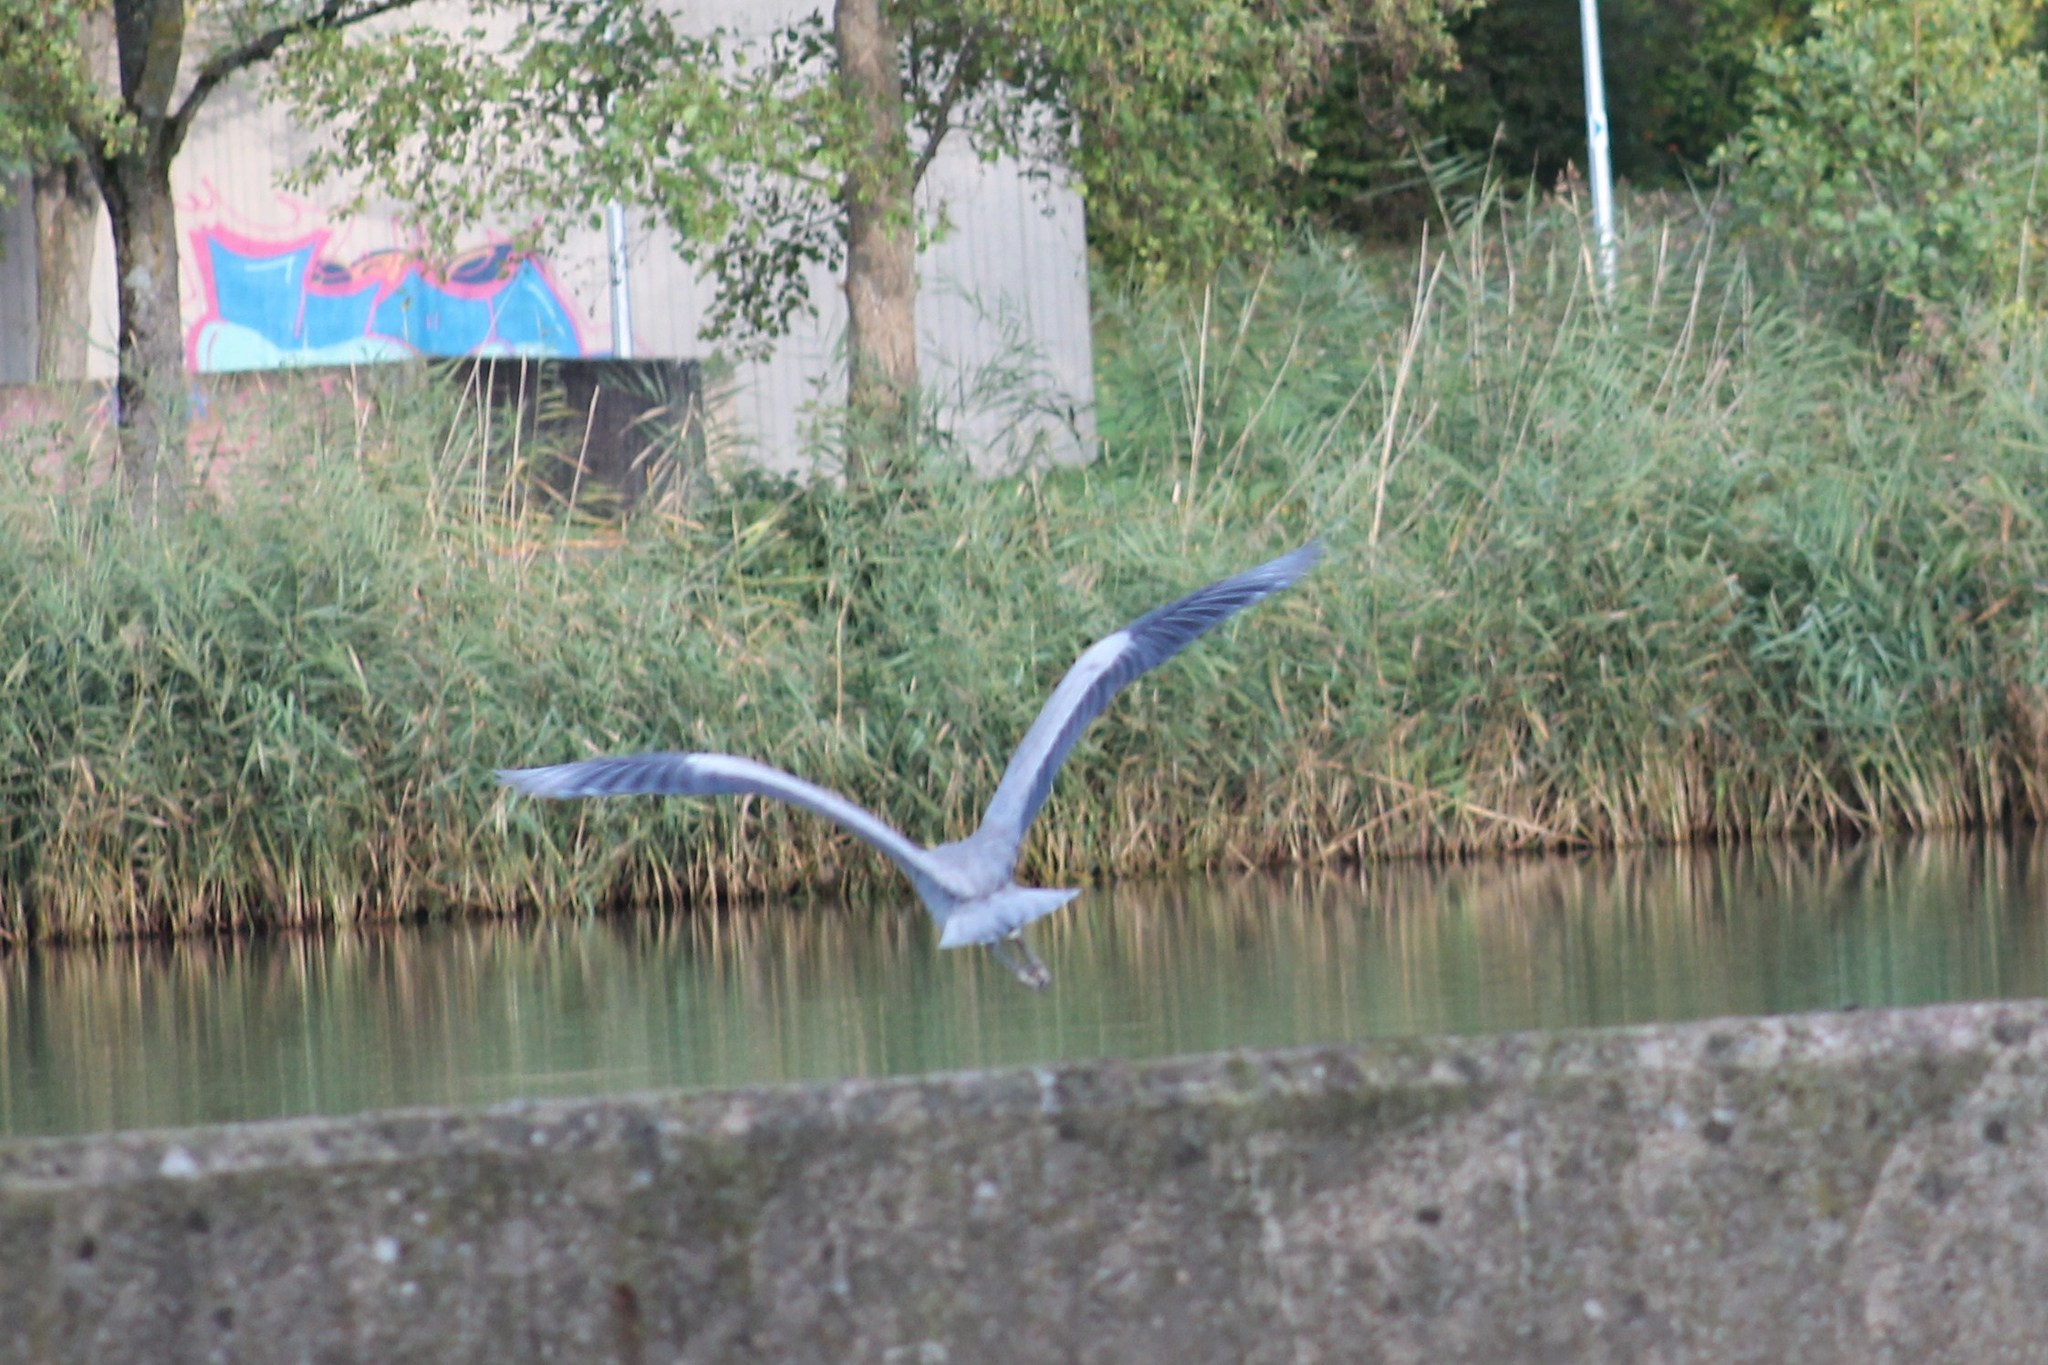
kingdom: Animalia
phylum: Chordata
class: Aves
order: Pelecaniformes
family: Ardeidae
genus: Ardea
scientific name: Ardea cinerea
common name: Grey heron
